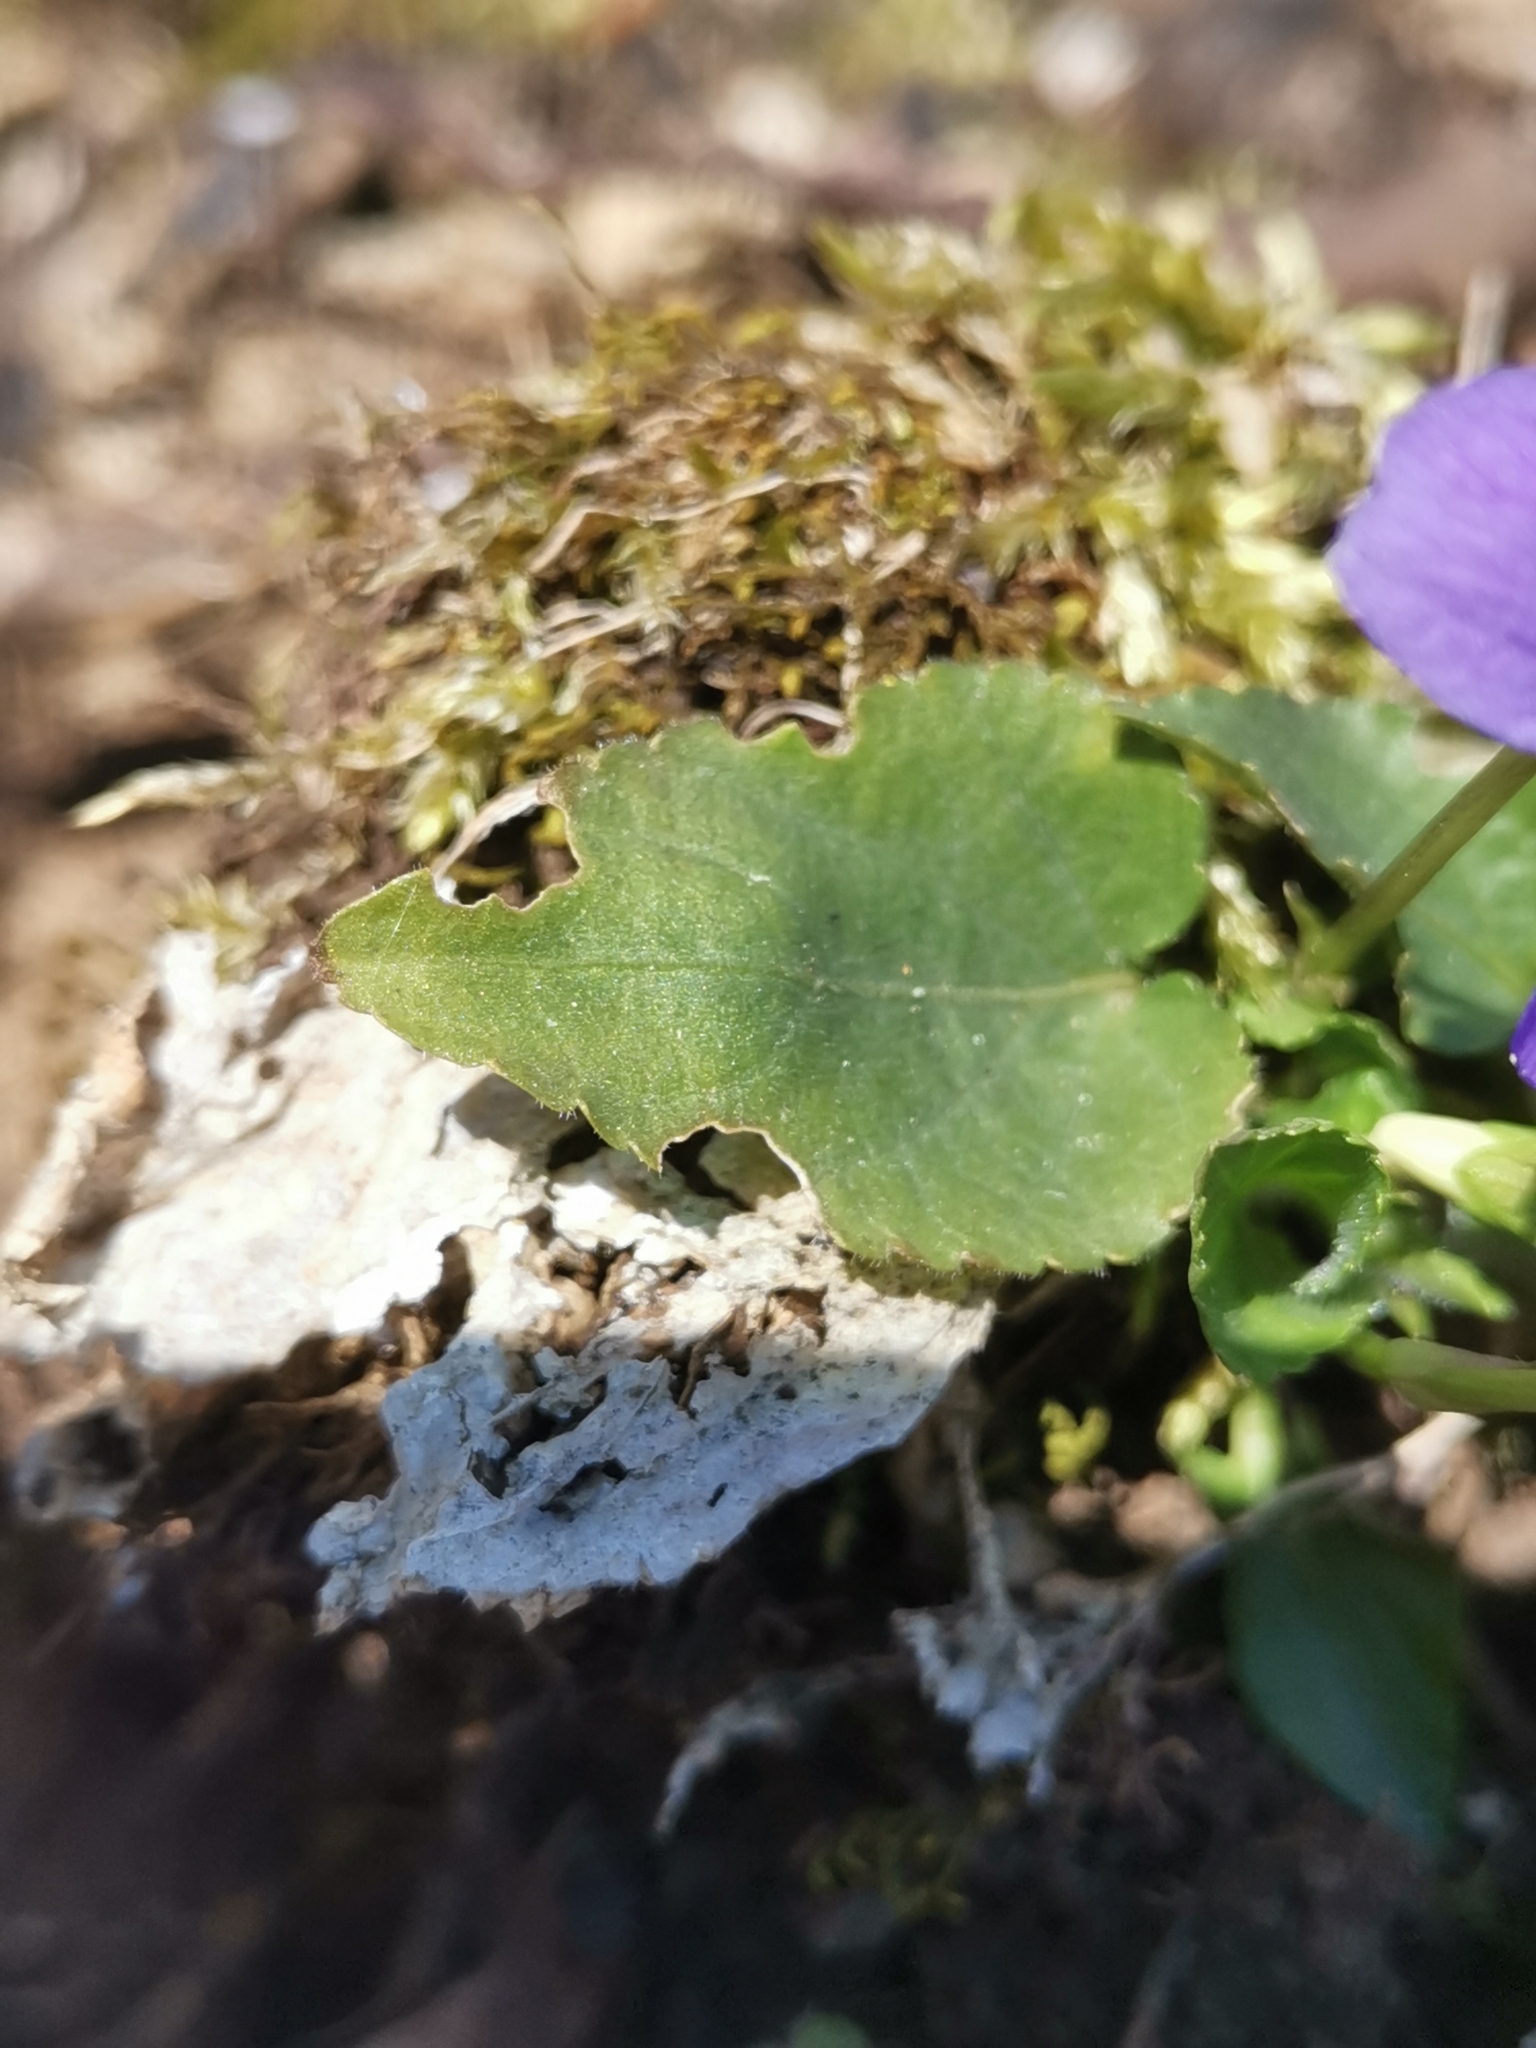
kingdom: Plantae
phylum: Tracheophyta
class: Magnoliopsida
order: Malpighiales
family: Violaceae
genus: Viola
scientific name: Viola hirta
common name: Hairy violet
